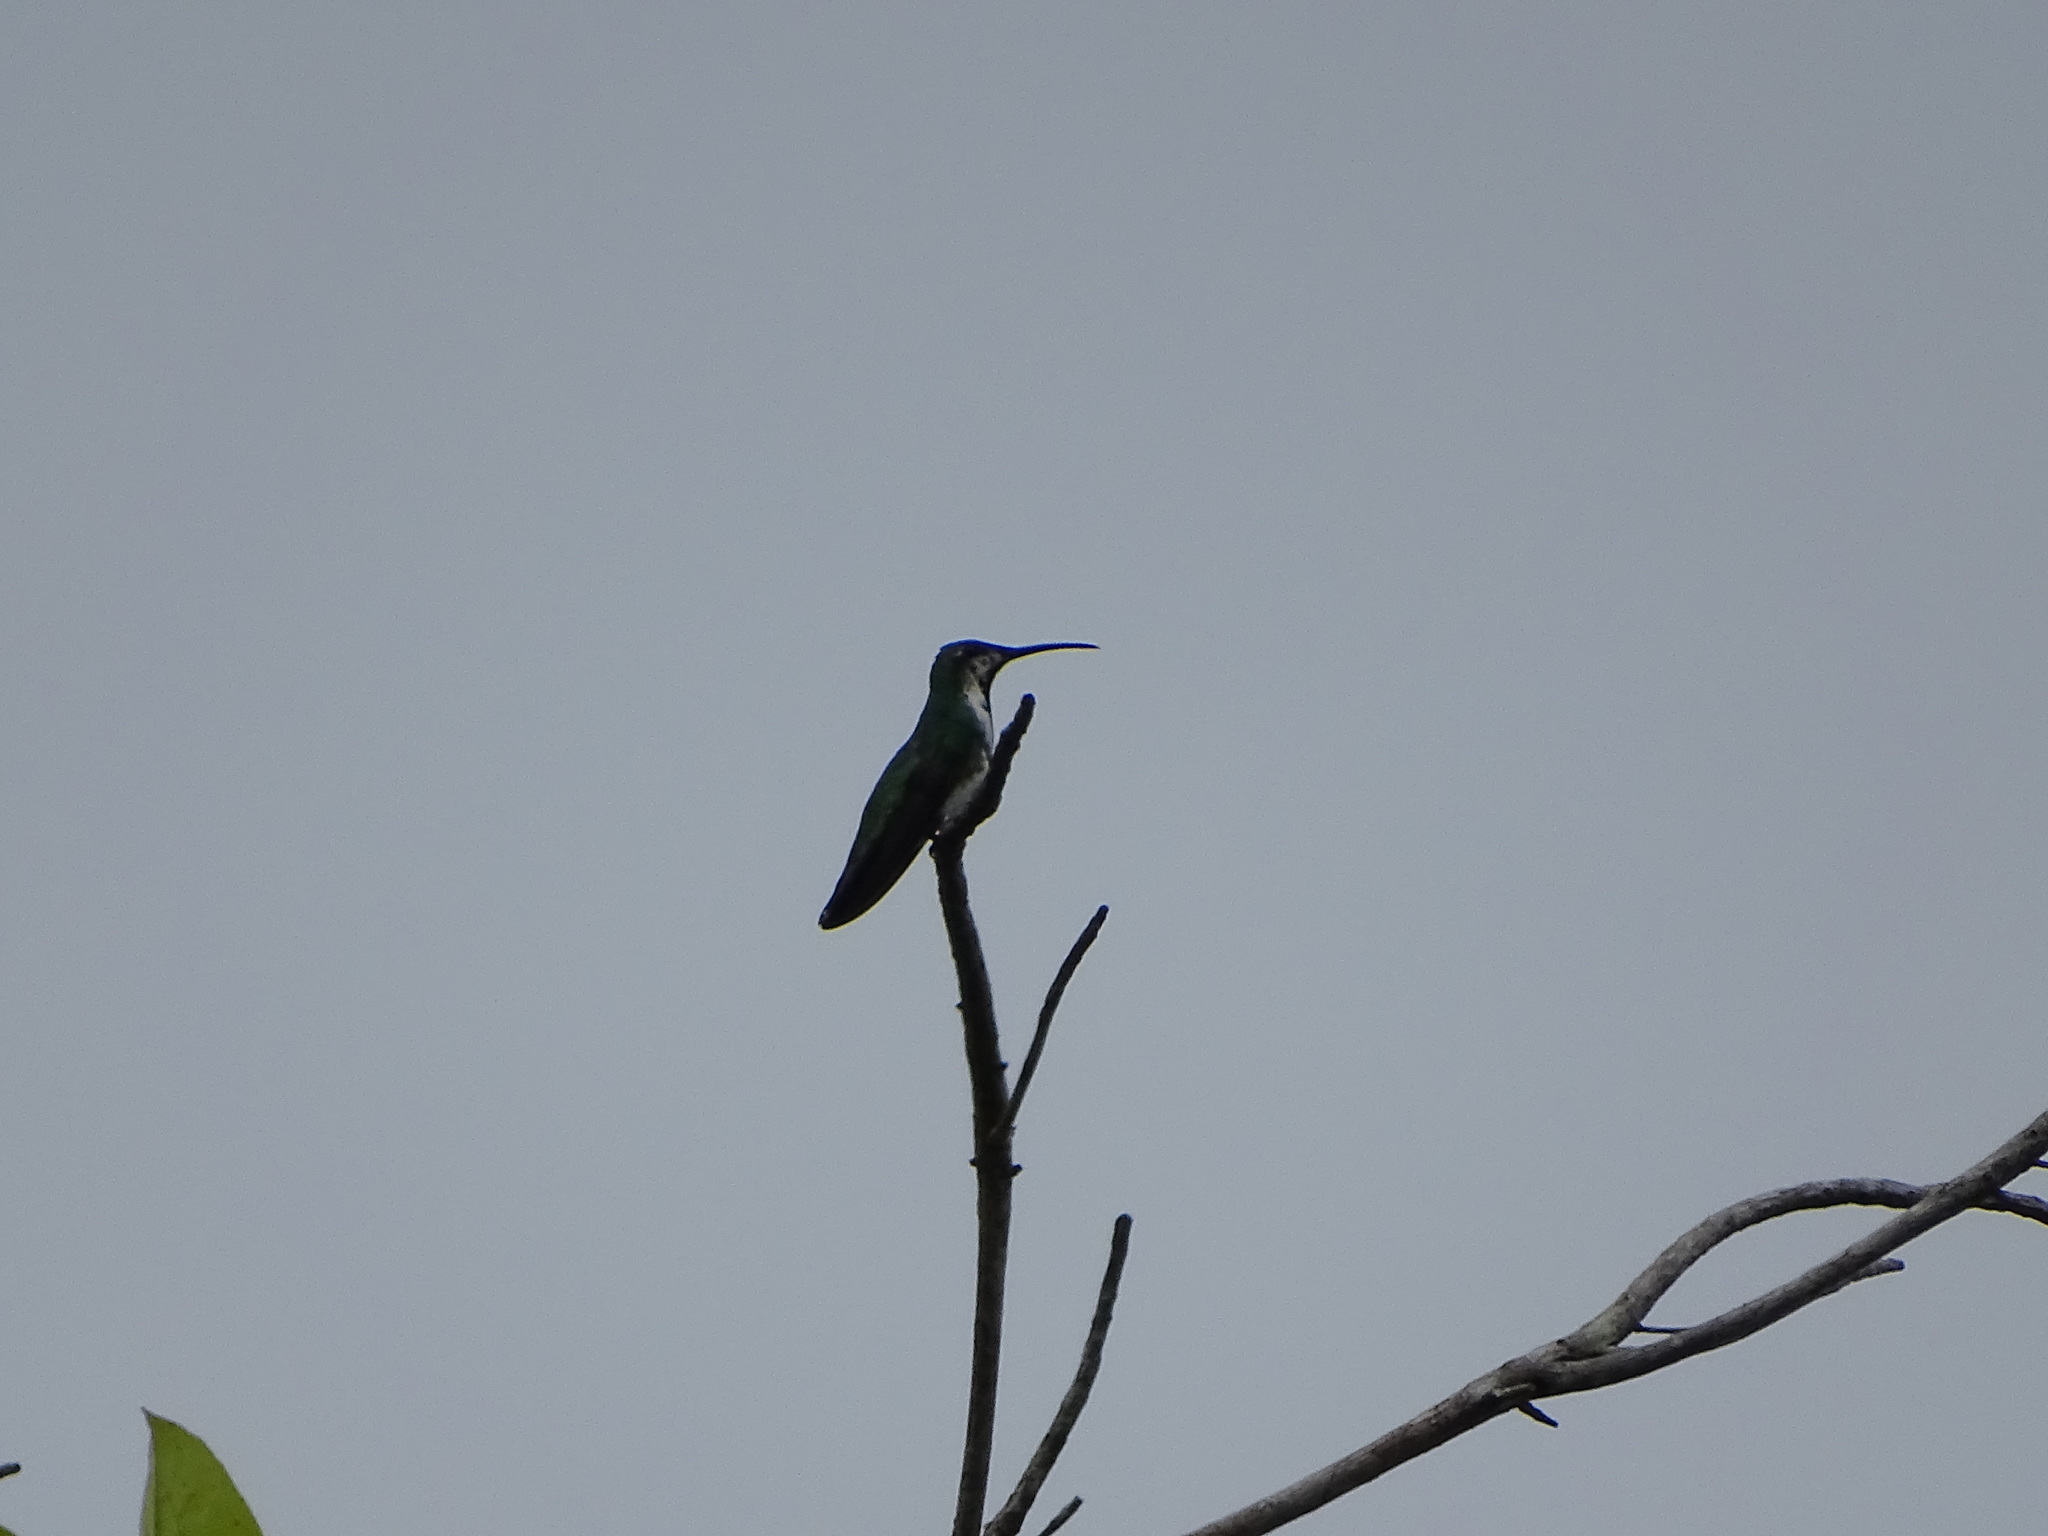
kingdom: Animalia
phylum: Chordata
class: Aves
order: Apodiformes
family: Trochilidae
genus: Anthracothorax
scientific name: Anthracothorax prevostii
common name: Green-breasted mango
